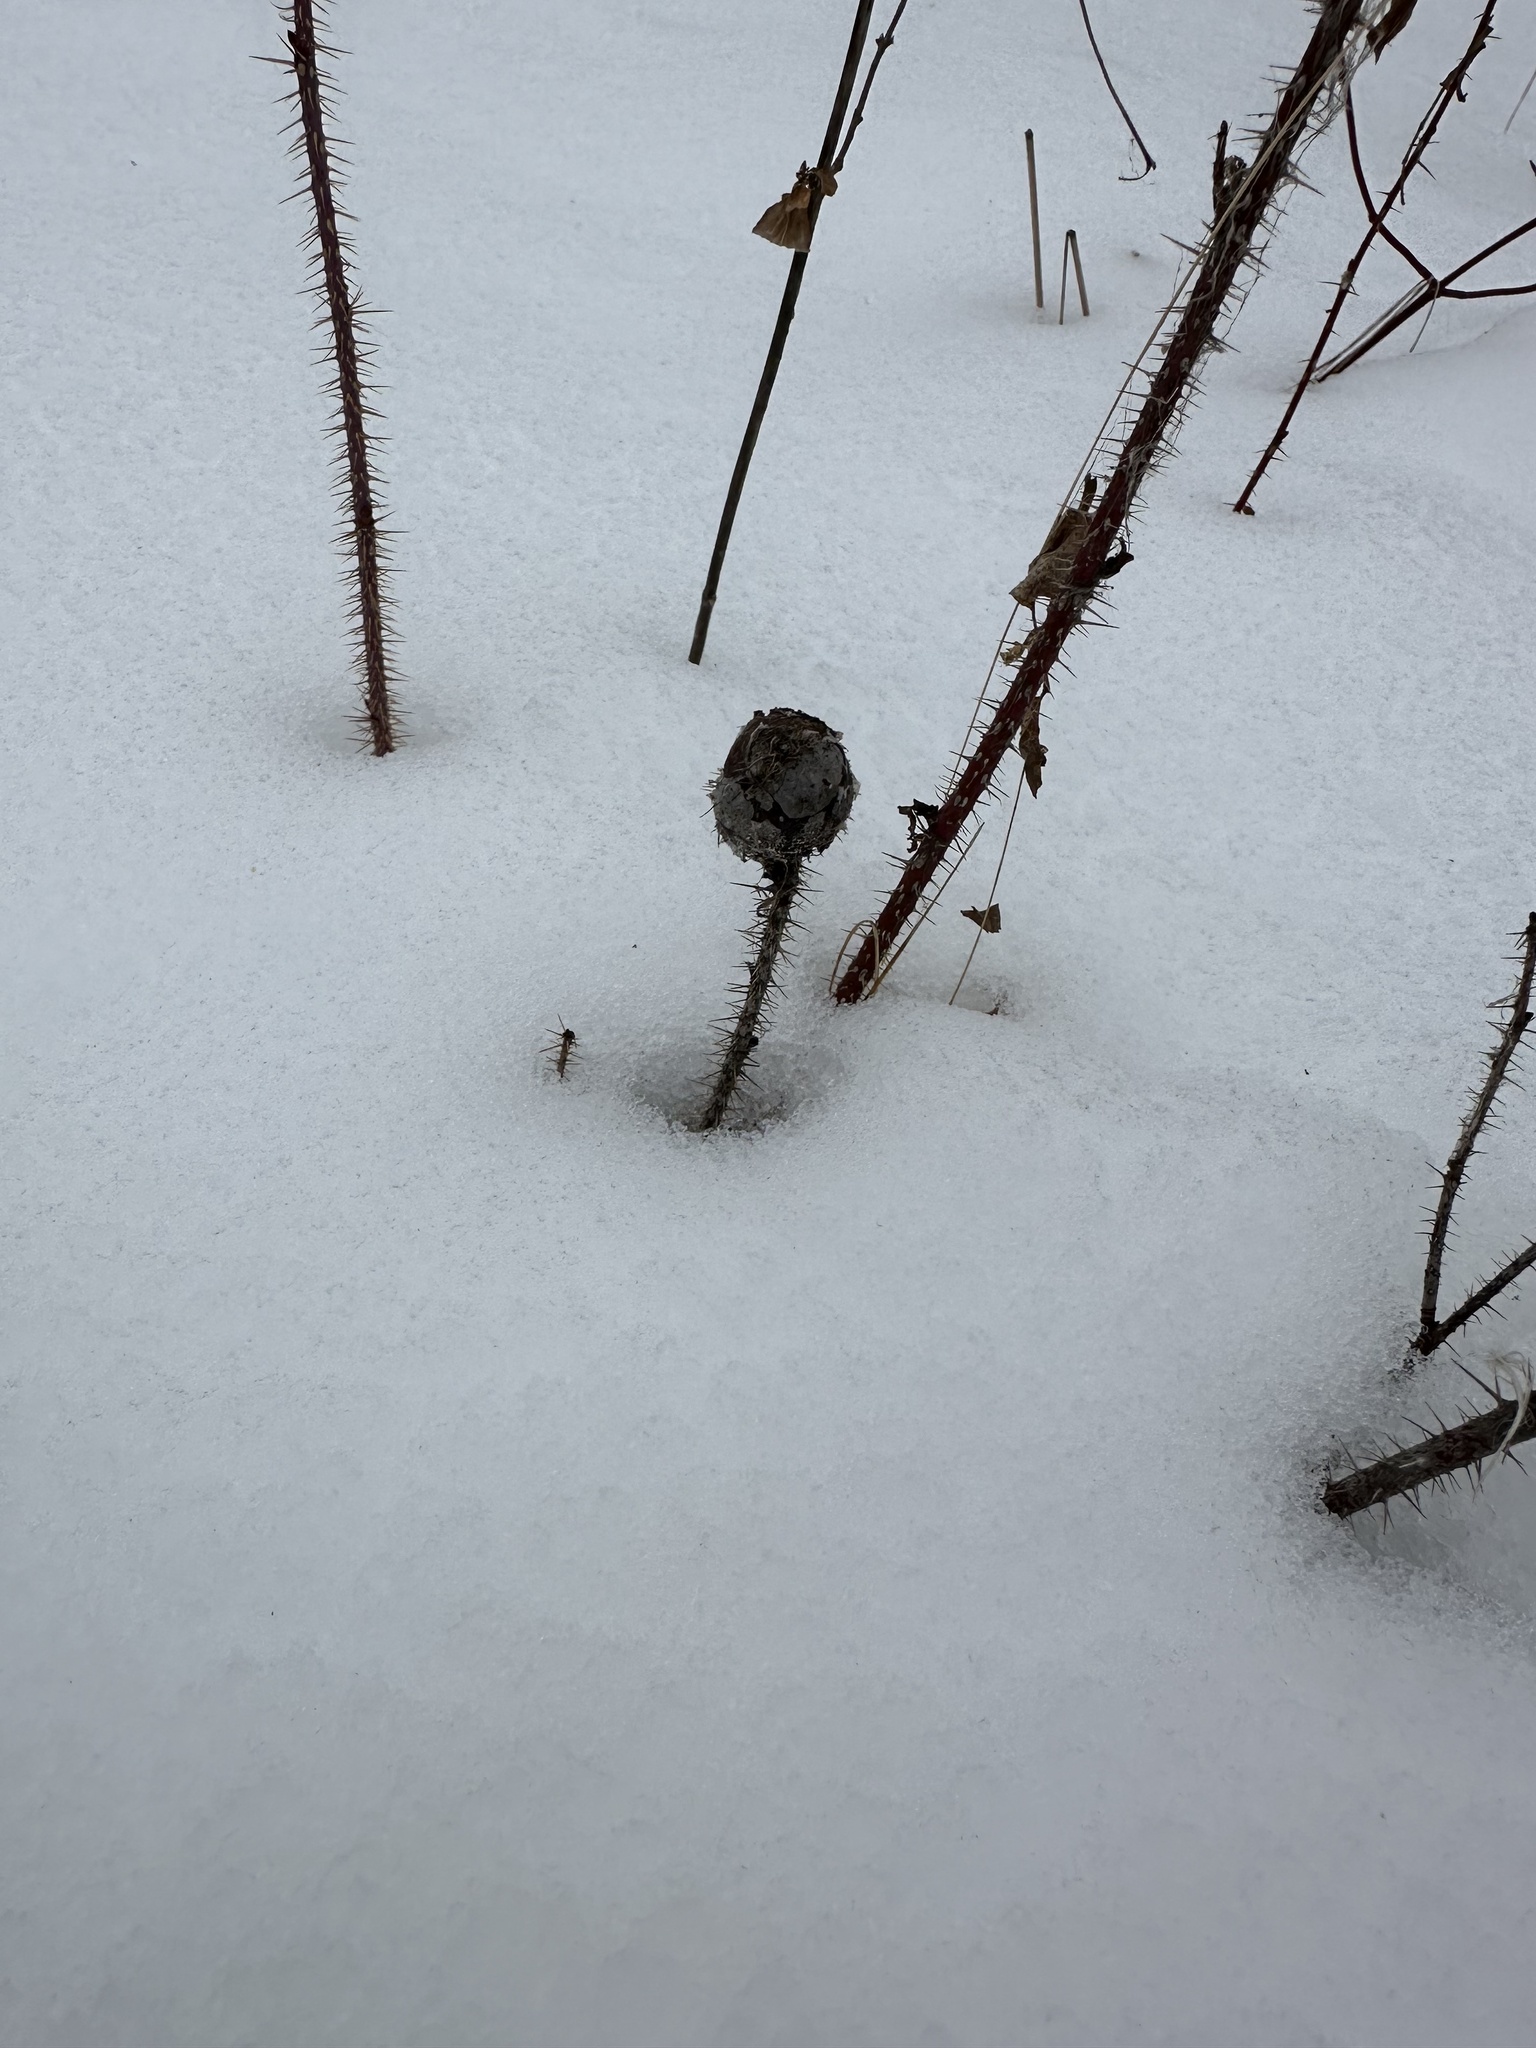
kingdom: Plantae
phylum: Tracheophyta
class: Magnoliopsida
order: Ericales
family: Ericaceae
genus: Monotropa
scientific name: Monotropa uniflora
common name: Convulsion root
